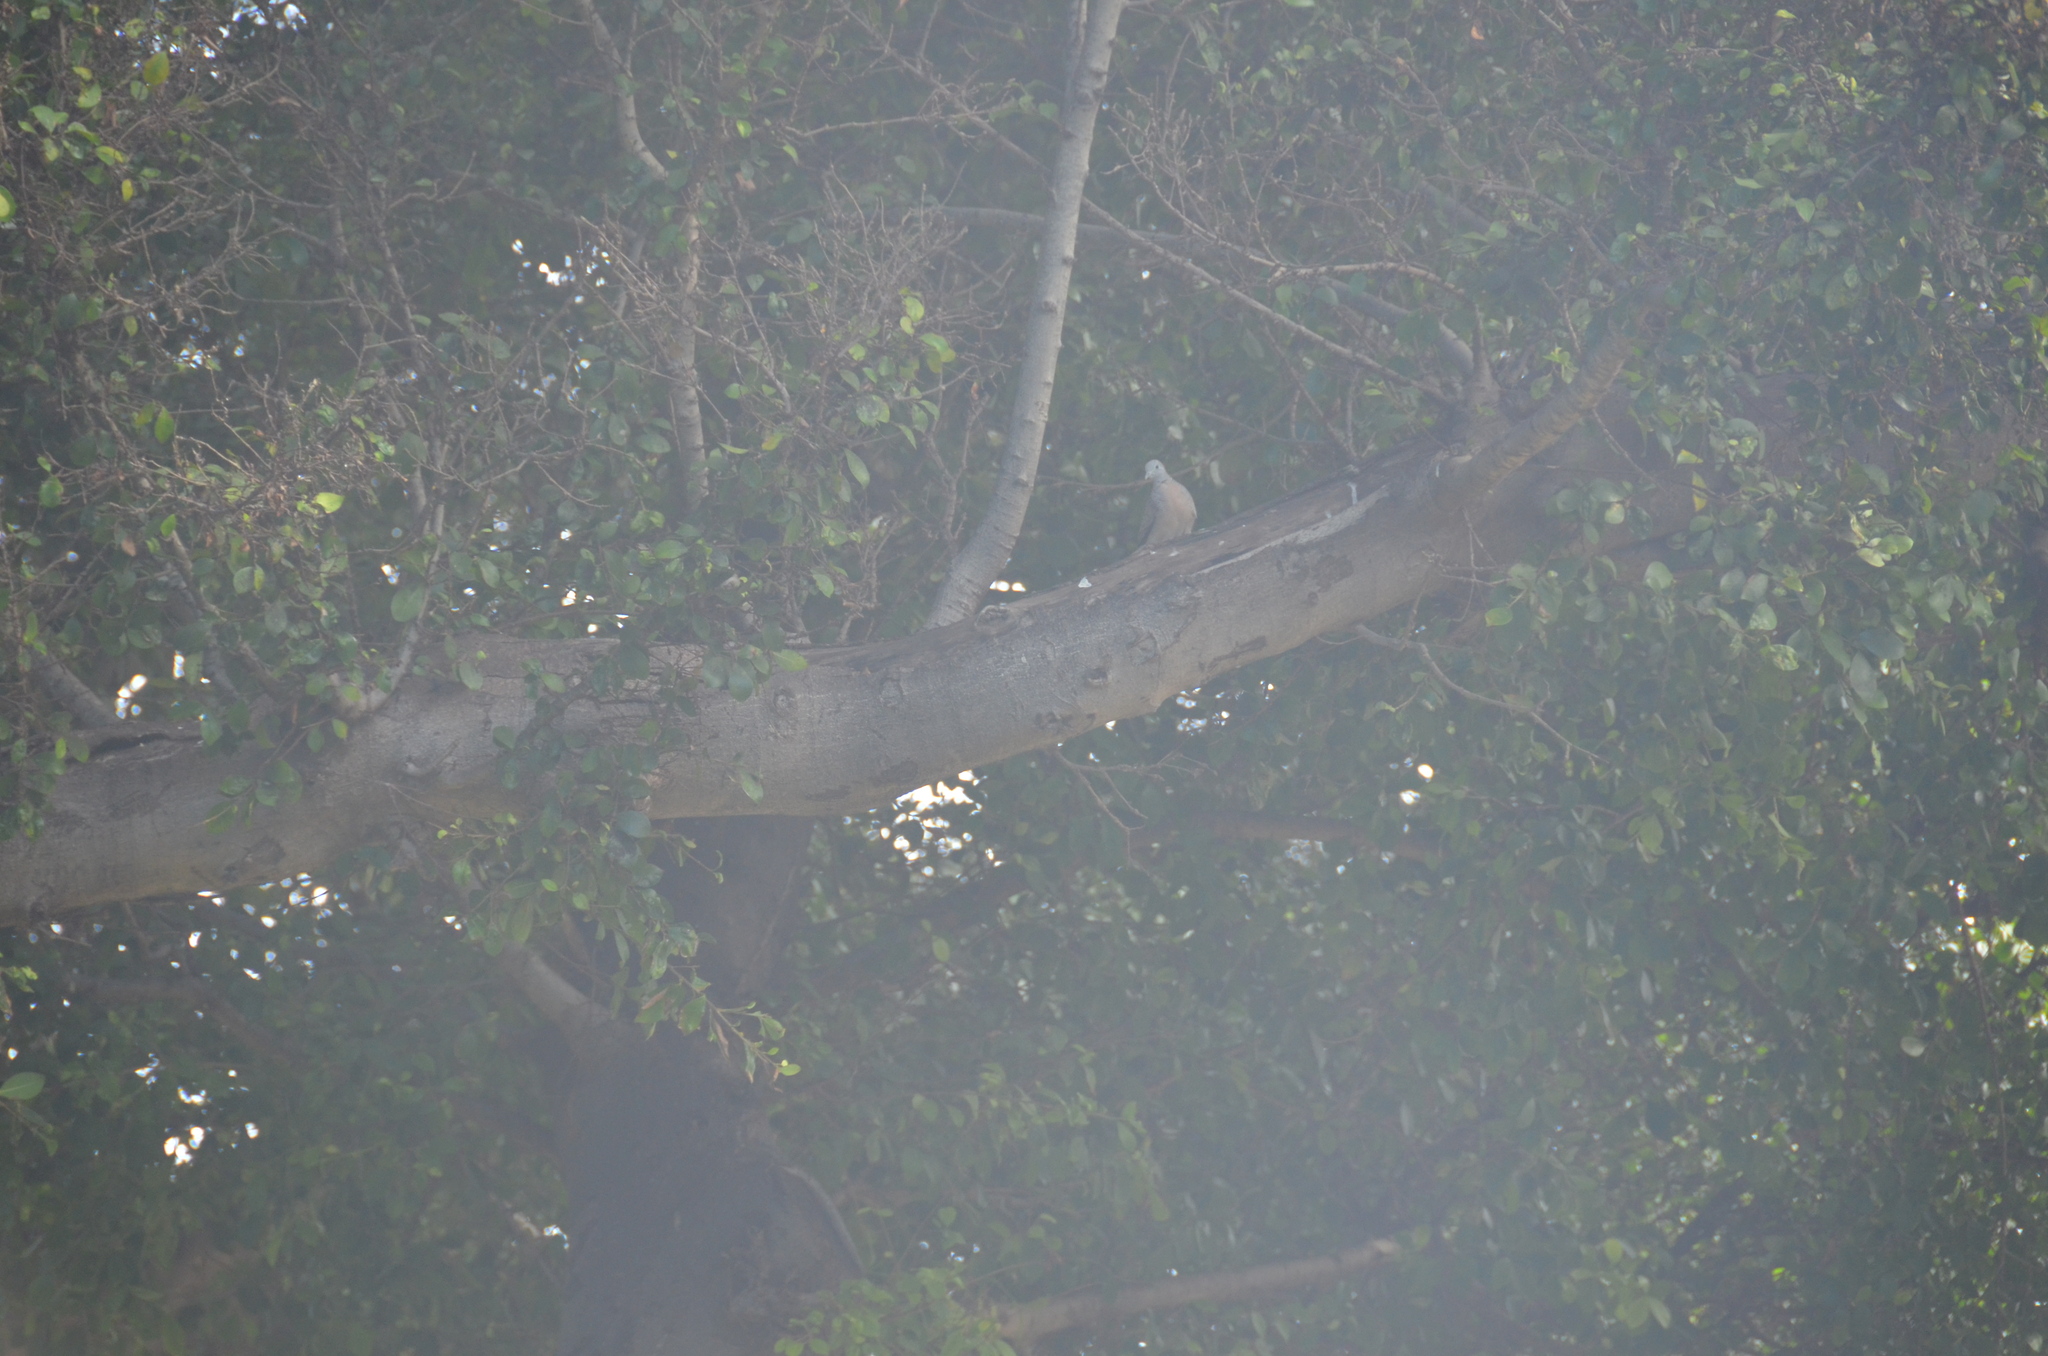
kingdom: Animalia
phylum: Chordata
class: Aves
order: Columbiformes
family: Columbidae
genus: Spilopelia
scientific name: Spilopelia chinensis
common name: Spotted dove
